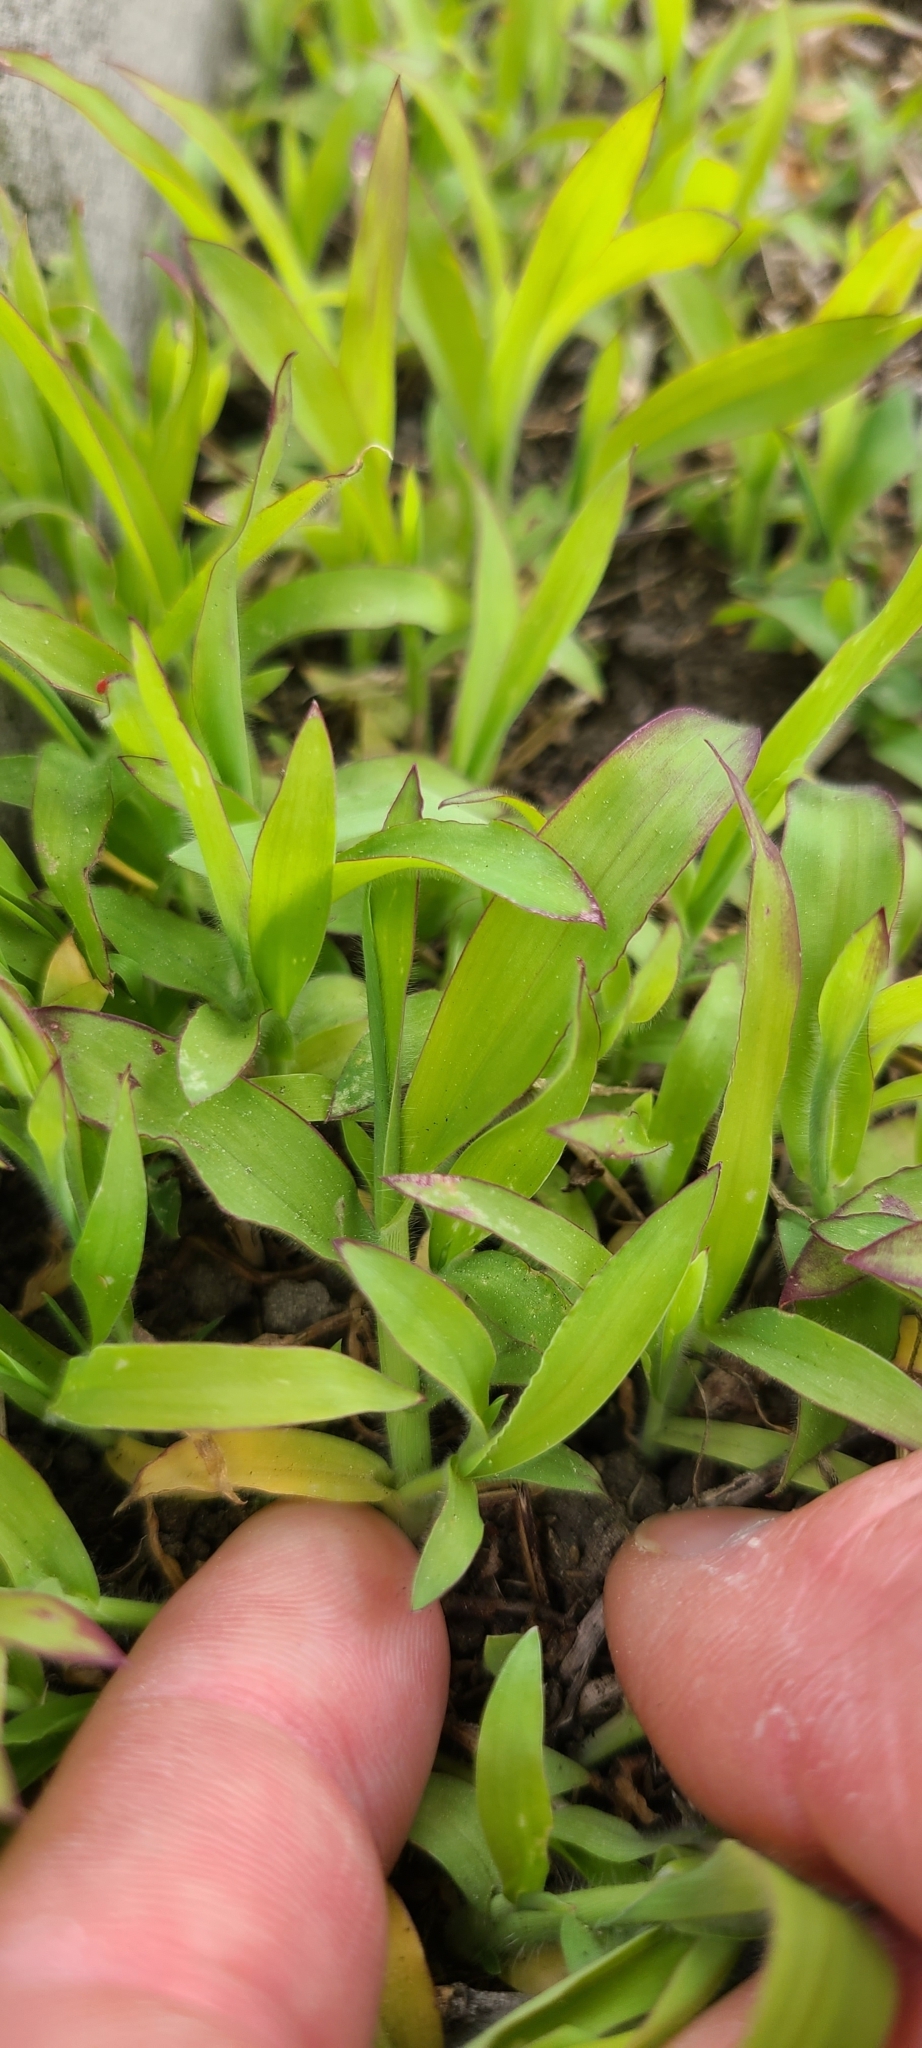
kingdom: Plantae
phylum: Tracheophyta
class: Liliopsida
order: Poales
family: Poaceae
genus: Digitaria
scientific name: Digitaria sanguinalis
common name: Hairy crabgrass
